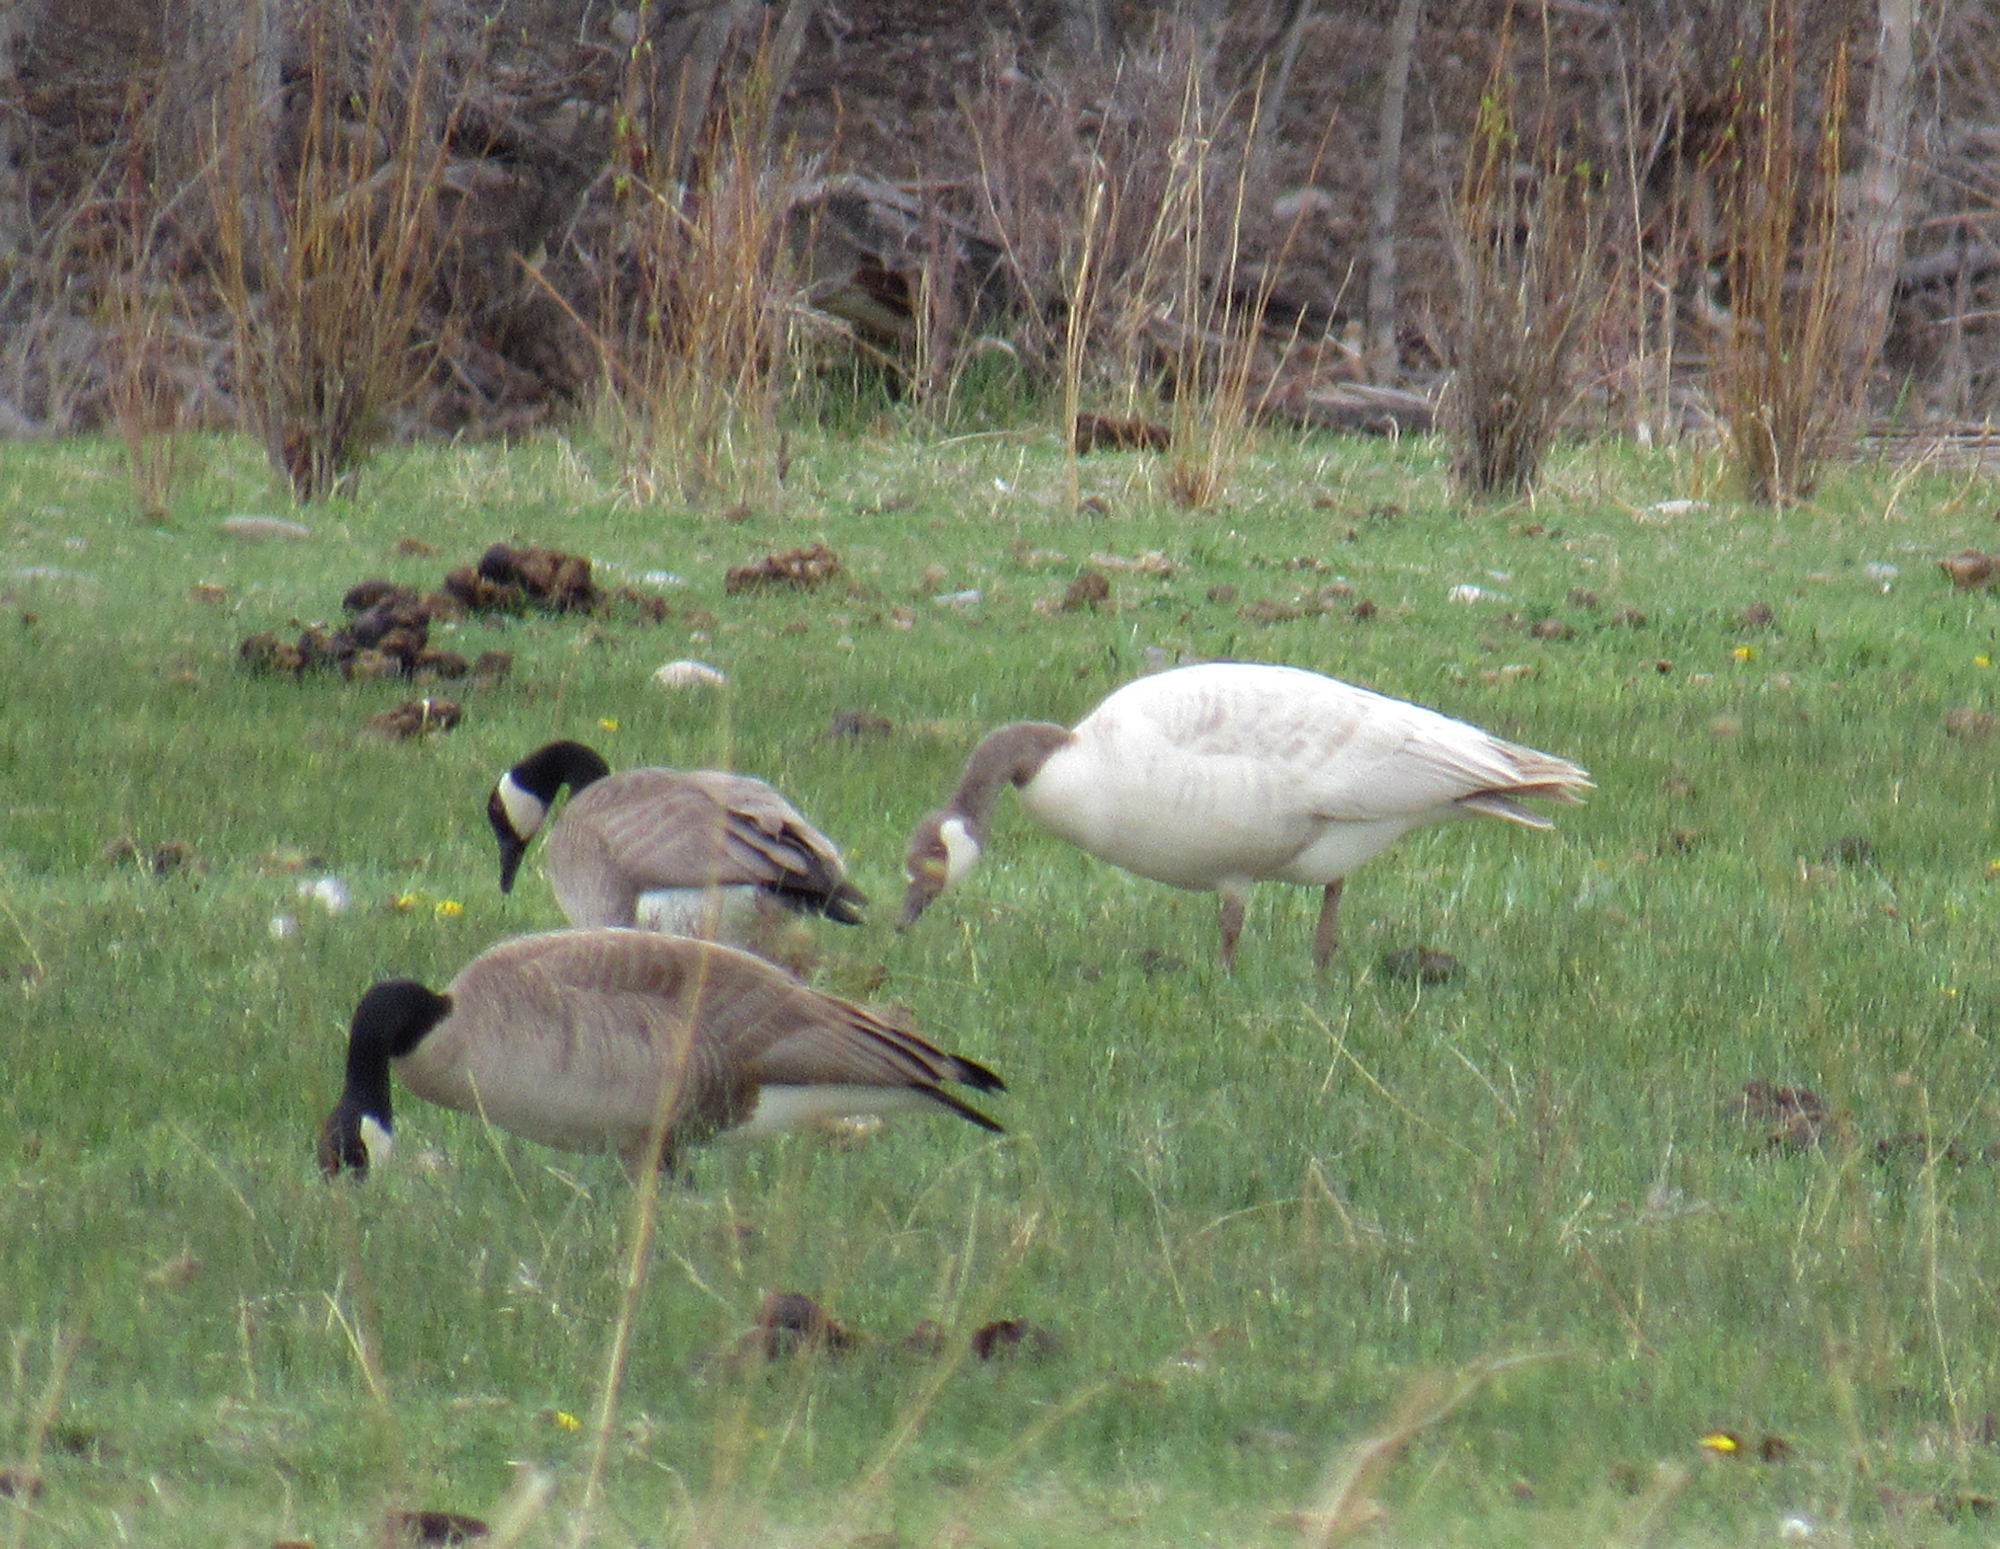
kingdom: Animalia
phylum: Chordata
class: Aves
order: Anseriformes
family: Anatidae
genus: Branta
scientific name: Branta canadensis
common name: Canada goose
